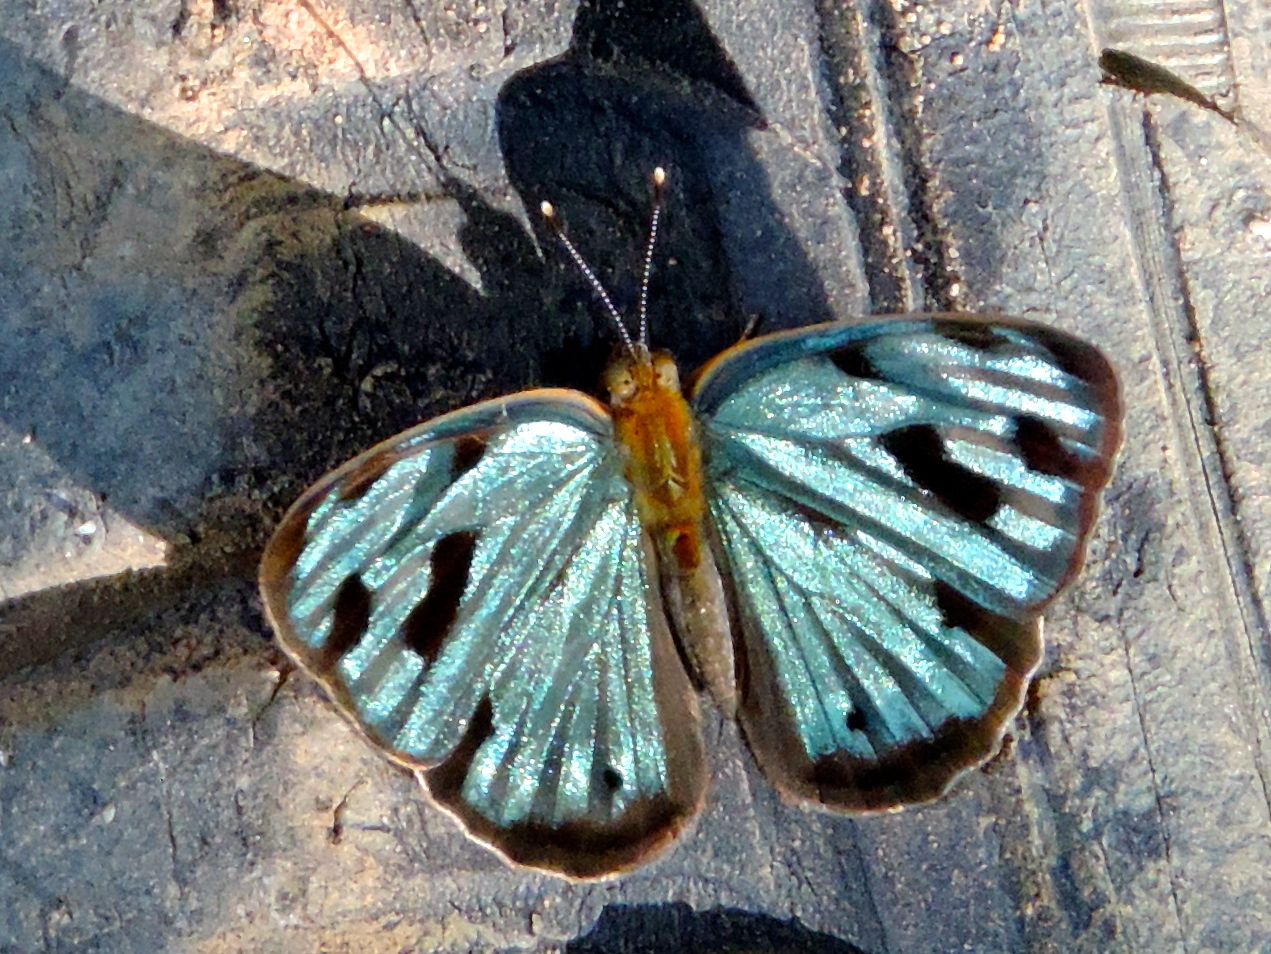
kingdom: Animalia
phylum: Arthropoda
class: Insecta
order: Lepidoptera
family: Nymphalidae
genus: Dynamine
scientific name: Dynamine mylitta
